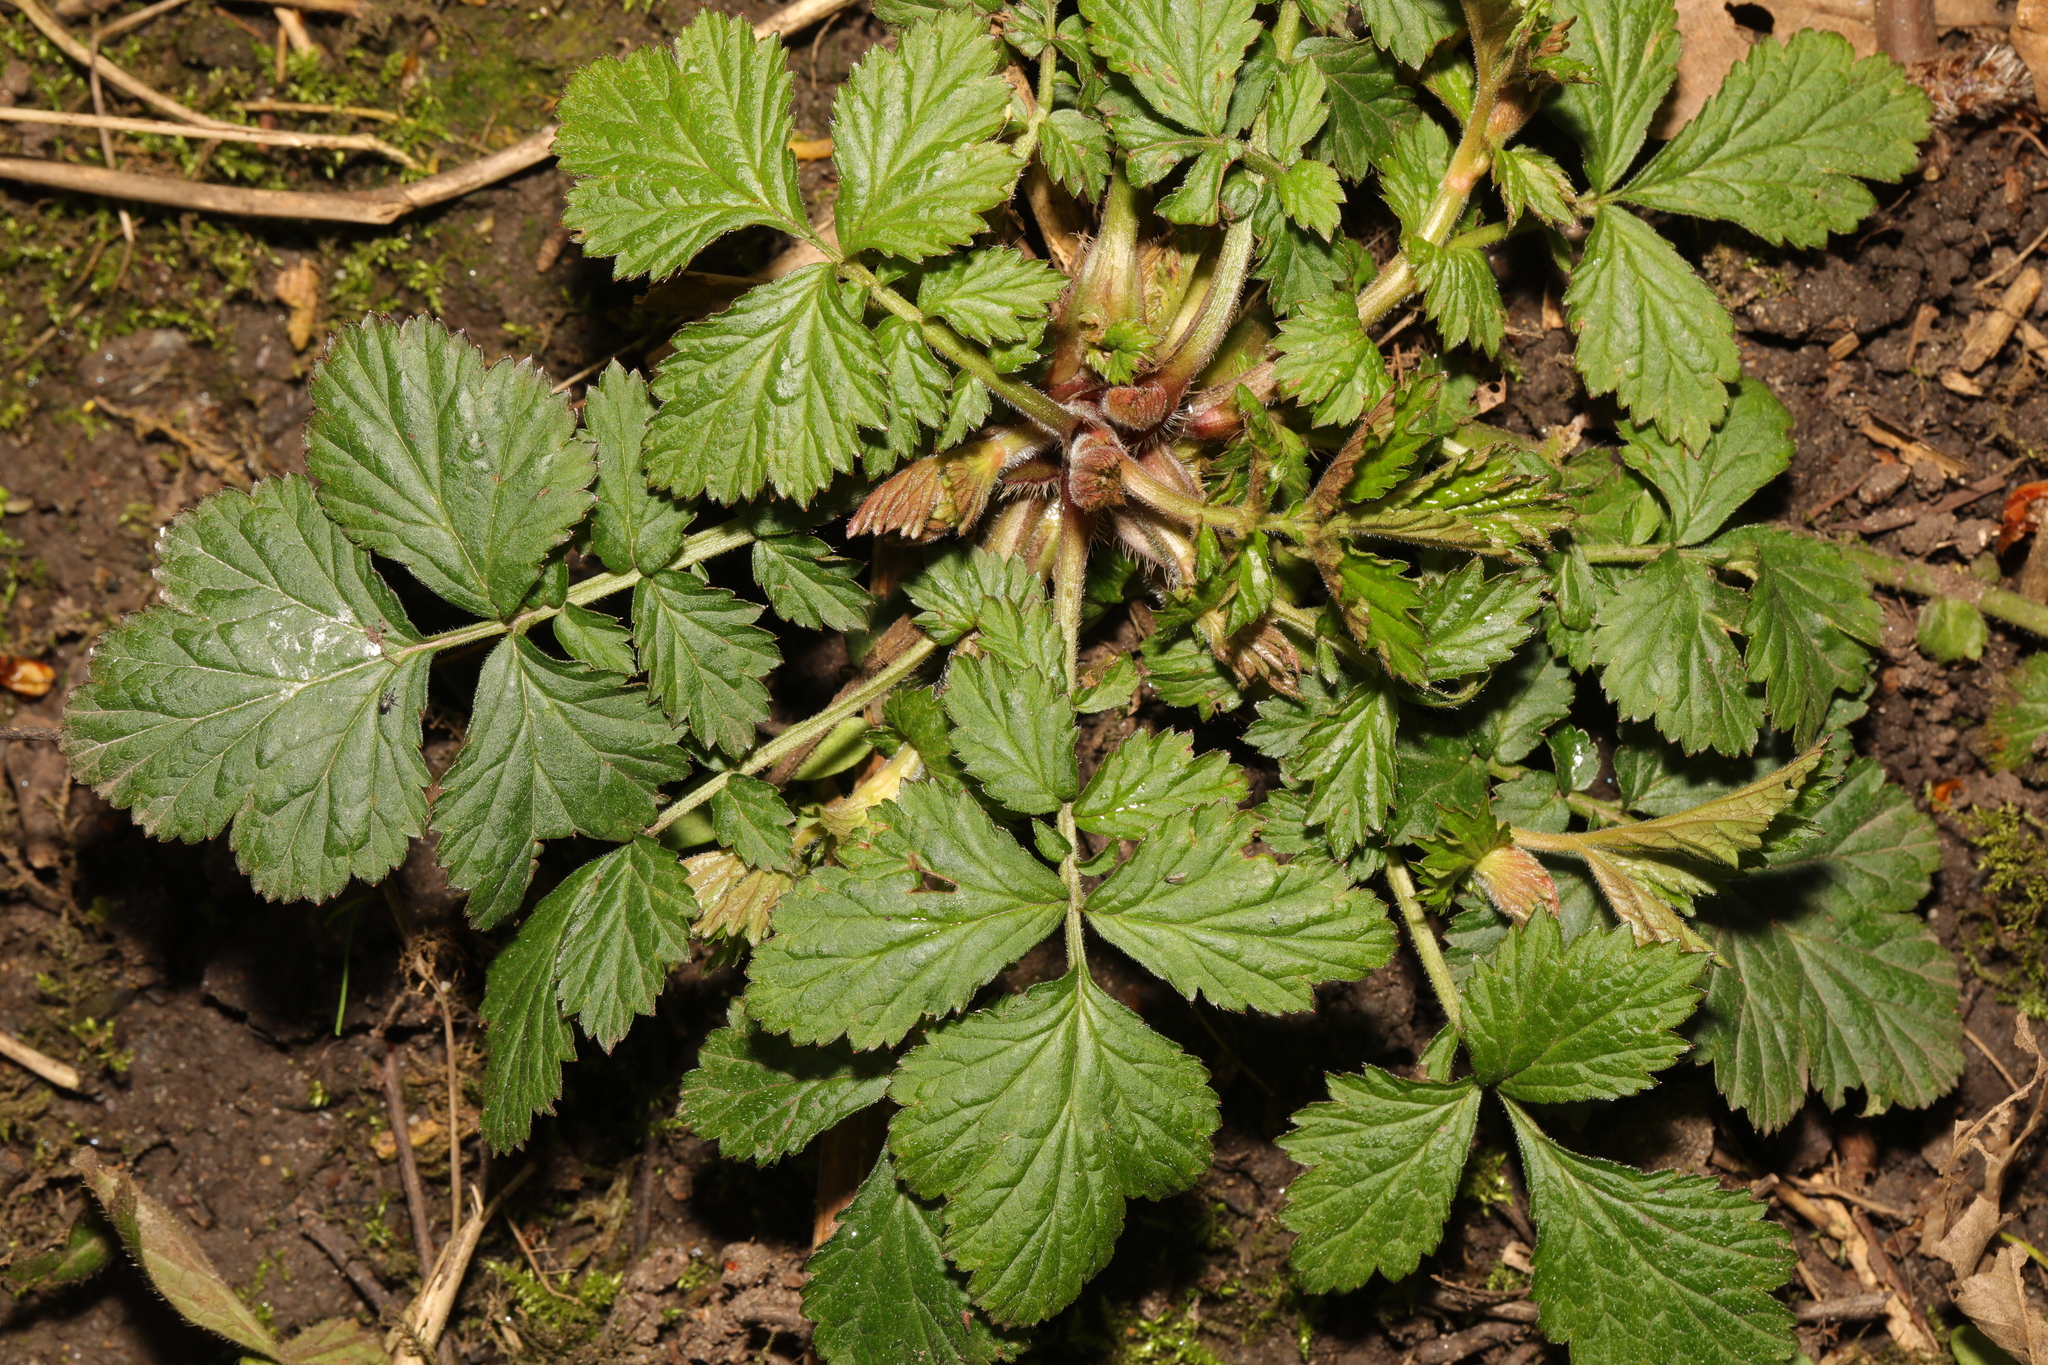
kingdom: Plantae
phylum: Tracheophyta
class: Magnoliopsida
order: Rosales
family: Rosaceae
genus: Geum
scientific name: Geum urbanum
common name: Wood avens
